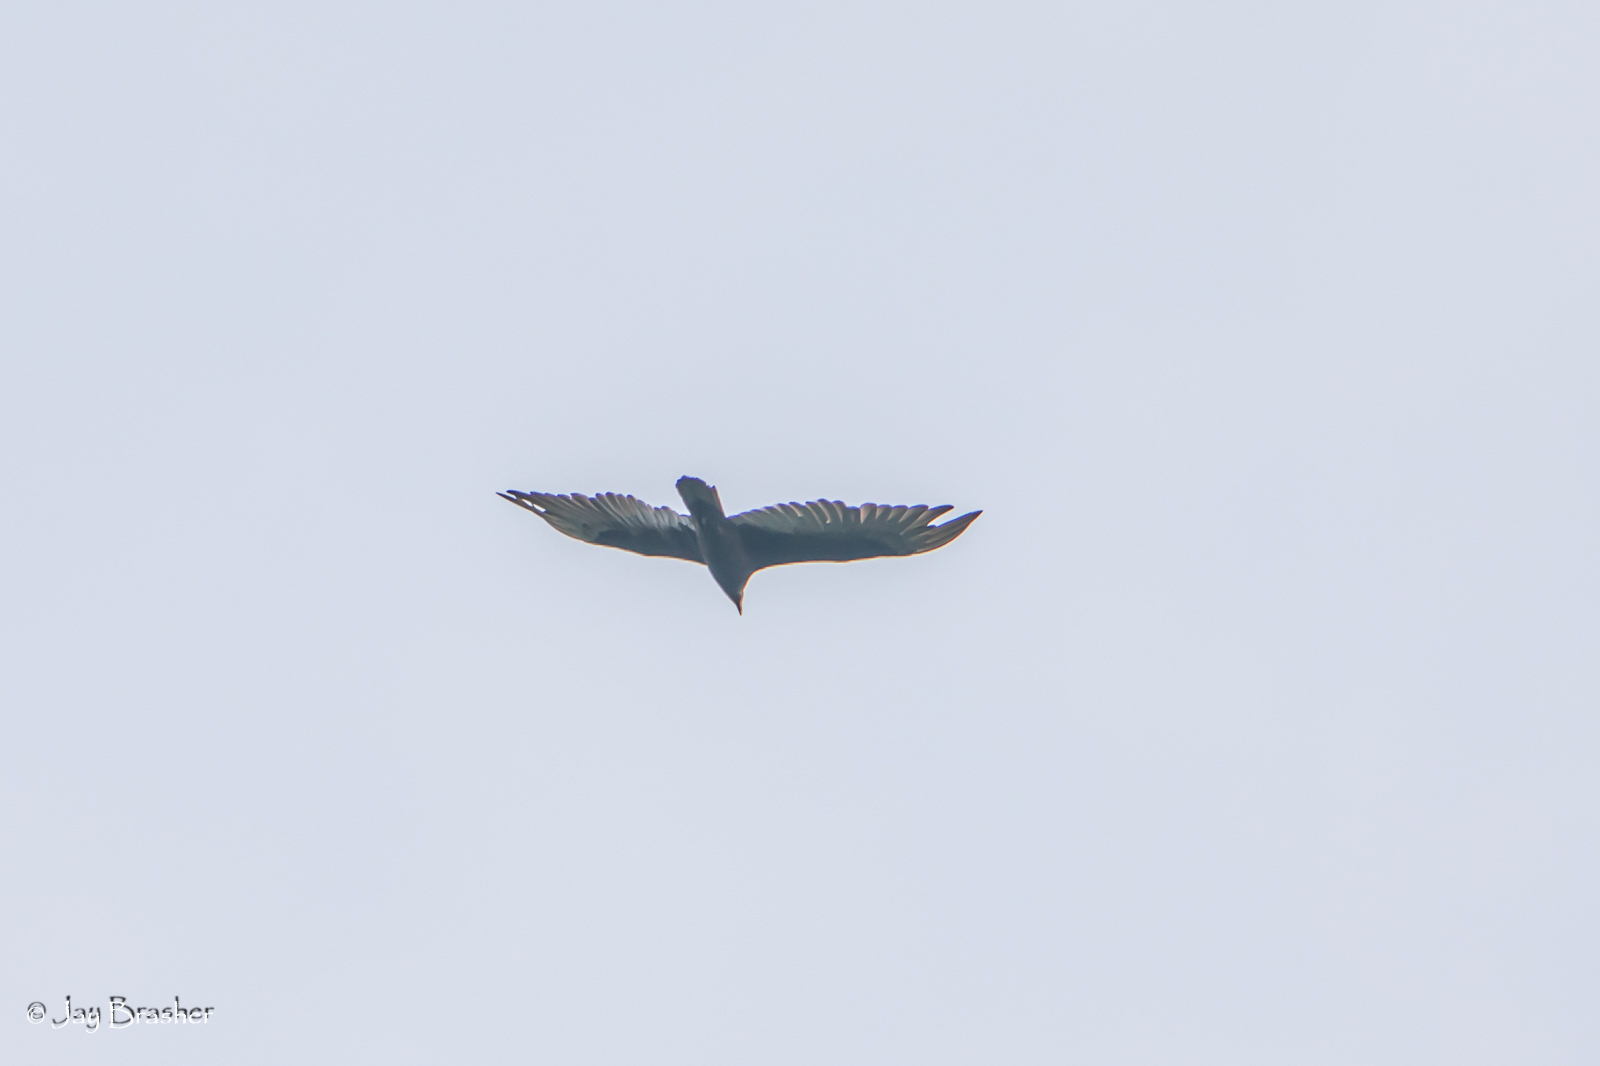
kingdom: Animalia
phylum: Chordata
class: Aves
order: Accipitriformes
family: Cathartidae
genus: Cathartes
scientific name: Cathartes aura
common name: Turkey vulture
